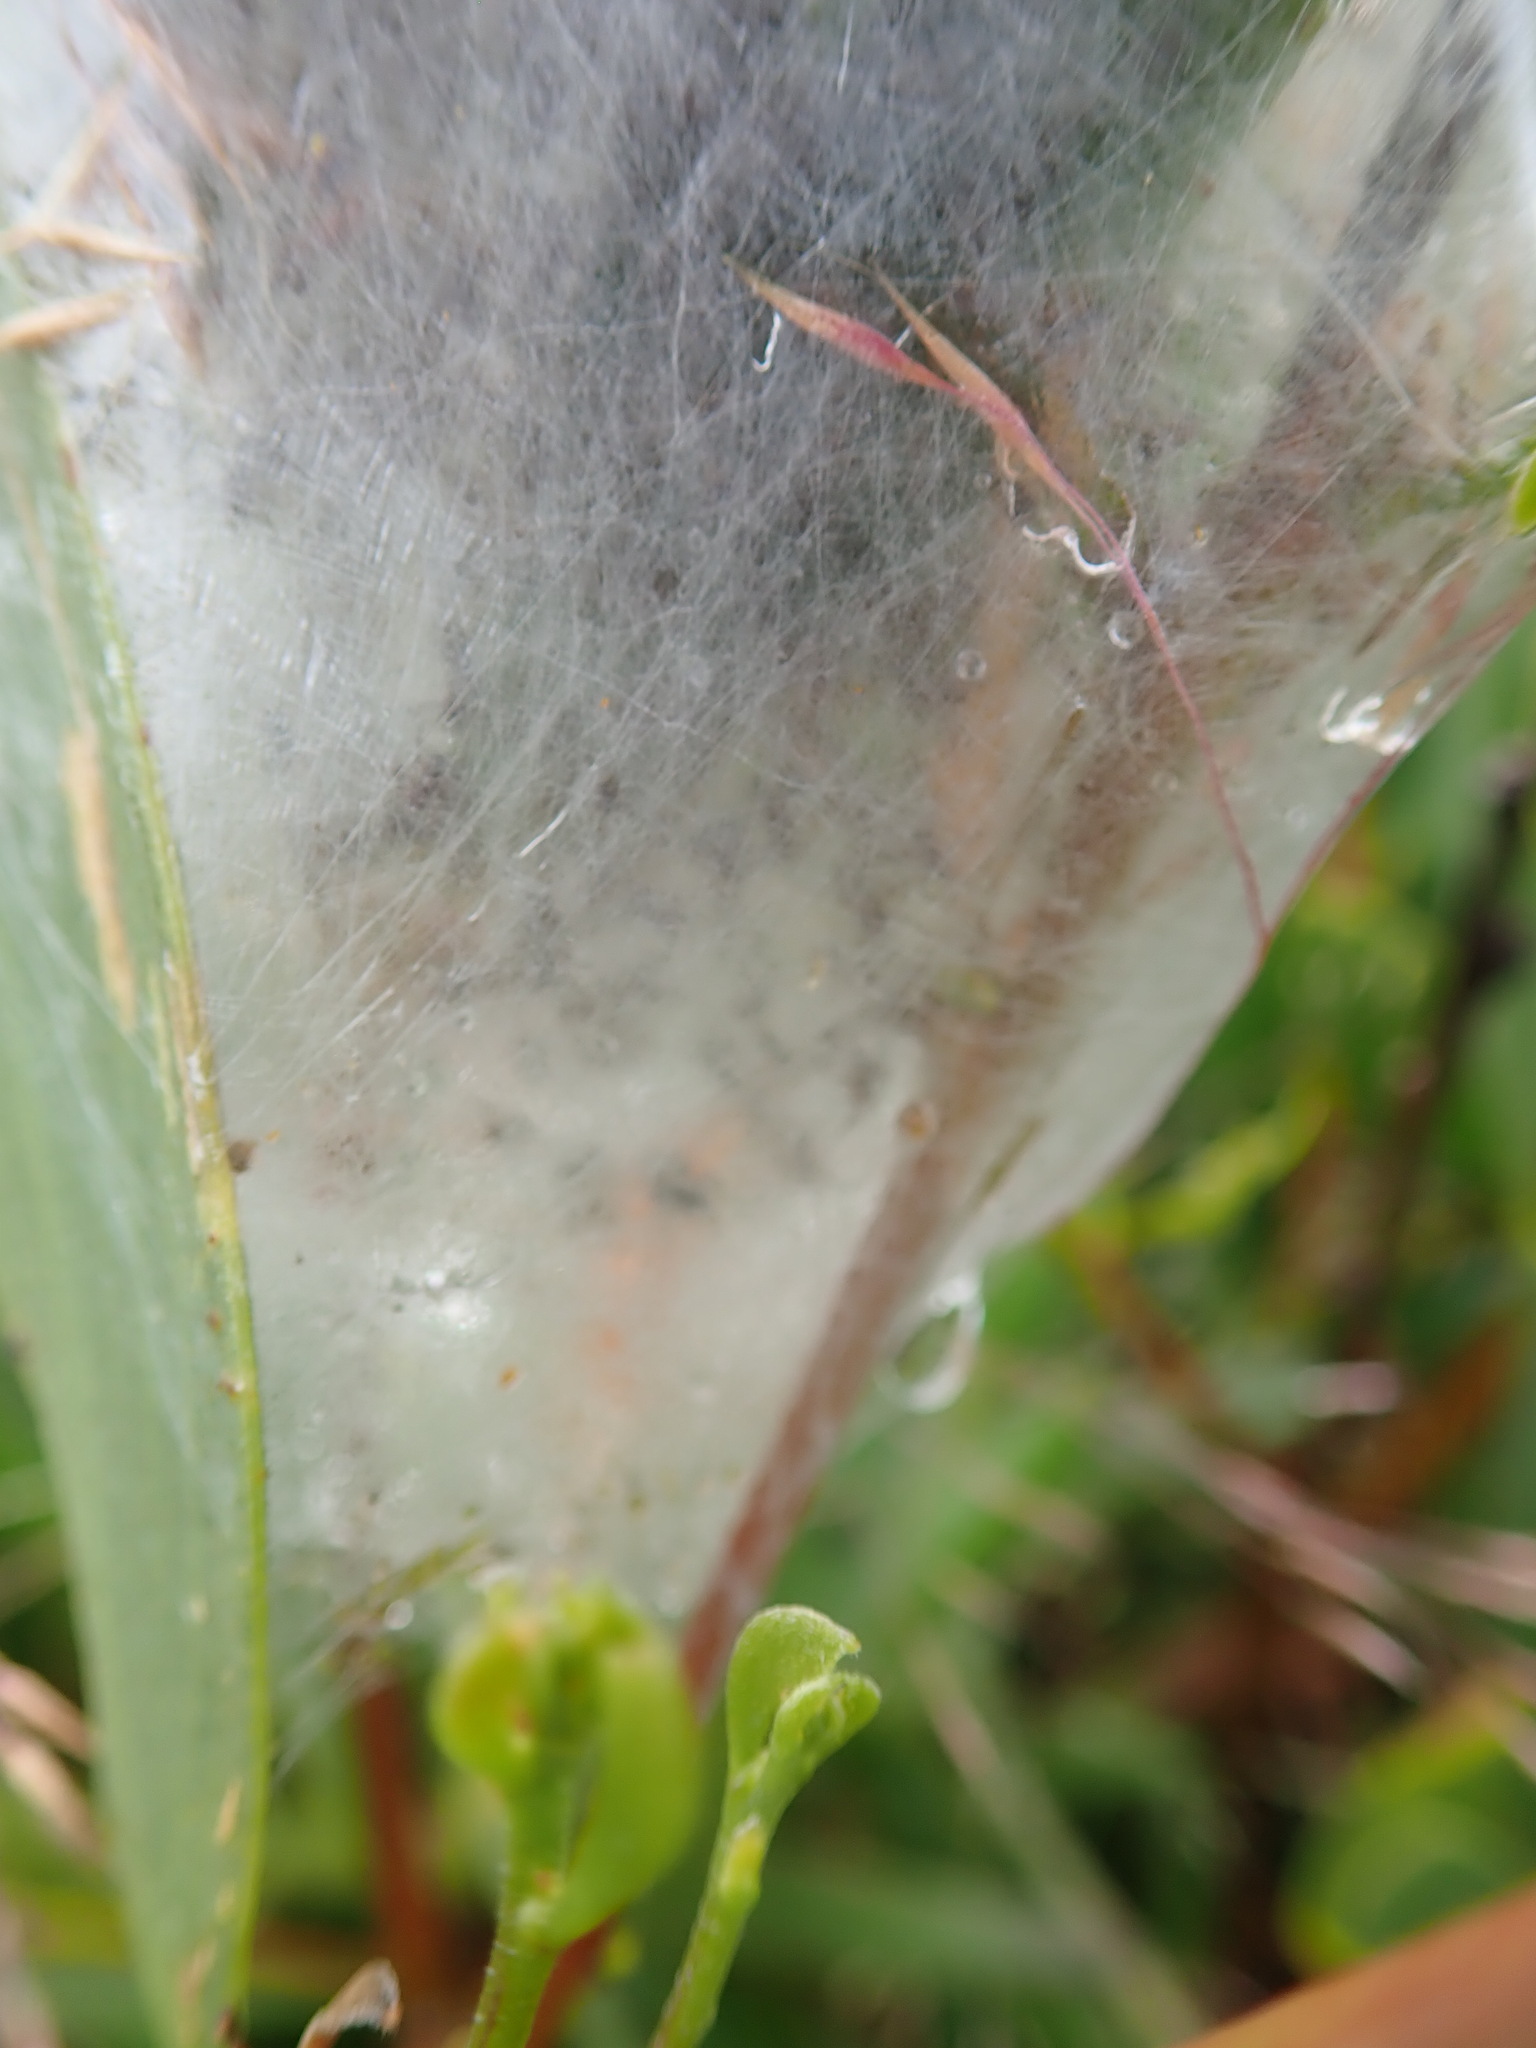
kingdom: Animalia
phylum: Arthropoda
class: Arachnida
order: Araneae
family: Pisauridae
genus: Dolomedes
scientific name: Dolomedes minor
